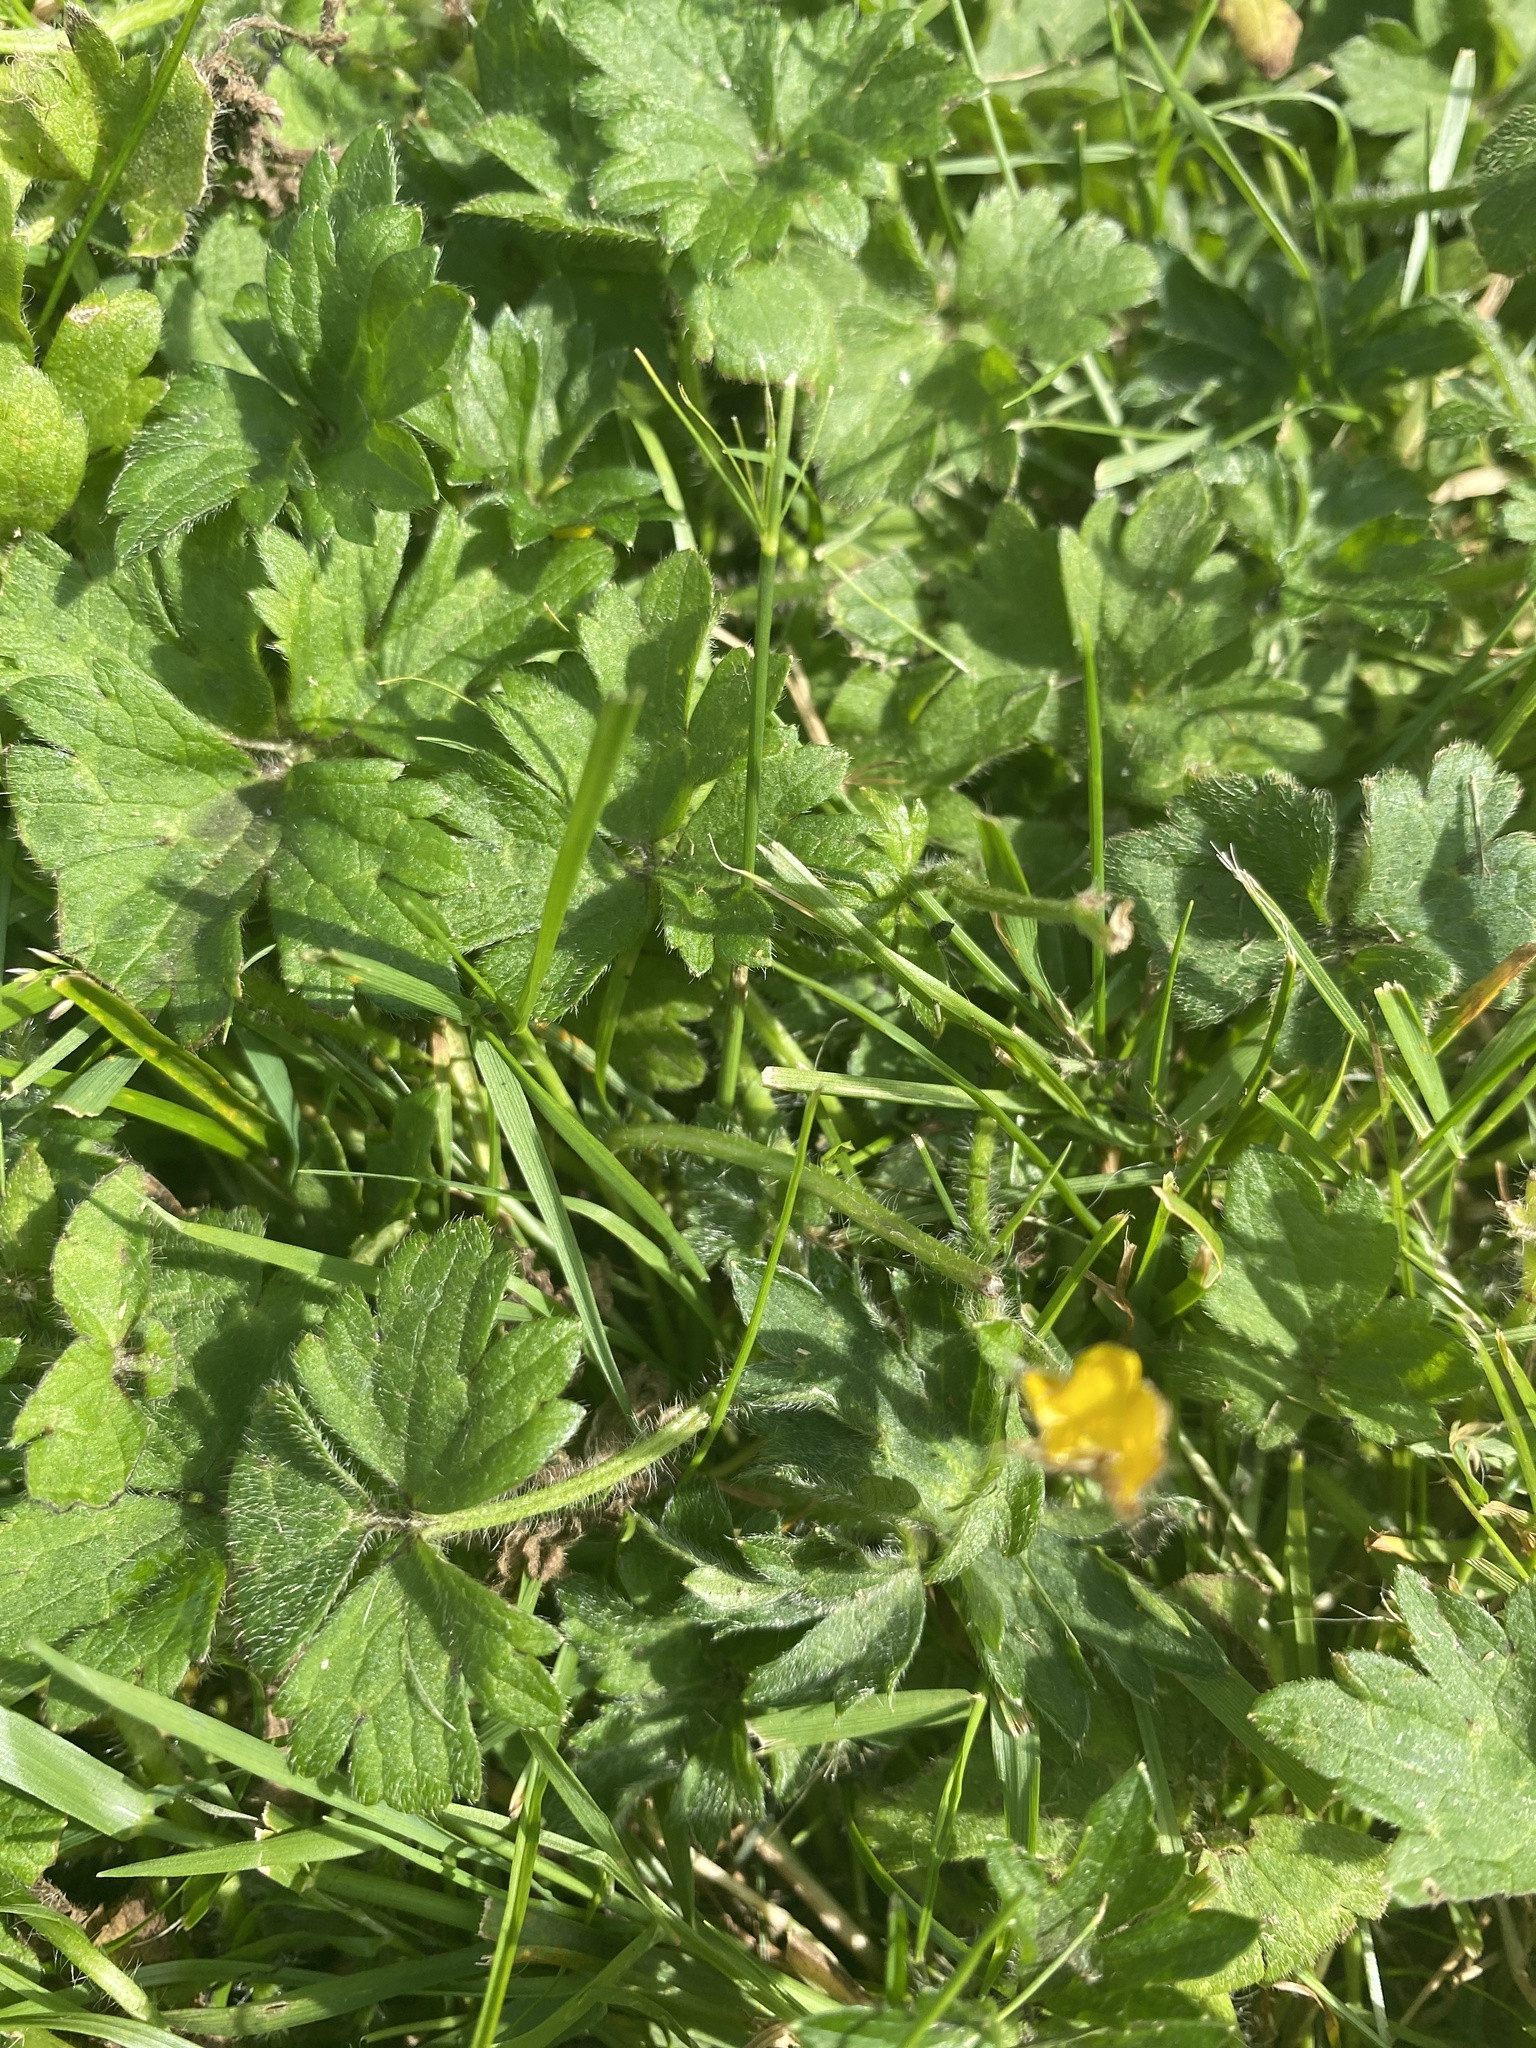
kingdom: Plantae
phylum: Tracheophyta
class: Magnoliopsida
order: Ranunculales
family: Ranunculaceae
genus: Ranunculus
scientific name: Ranunculus repens
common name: Creeping buttercup
